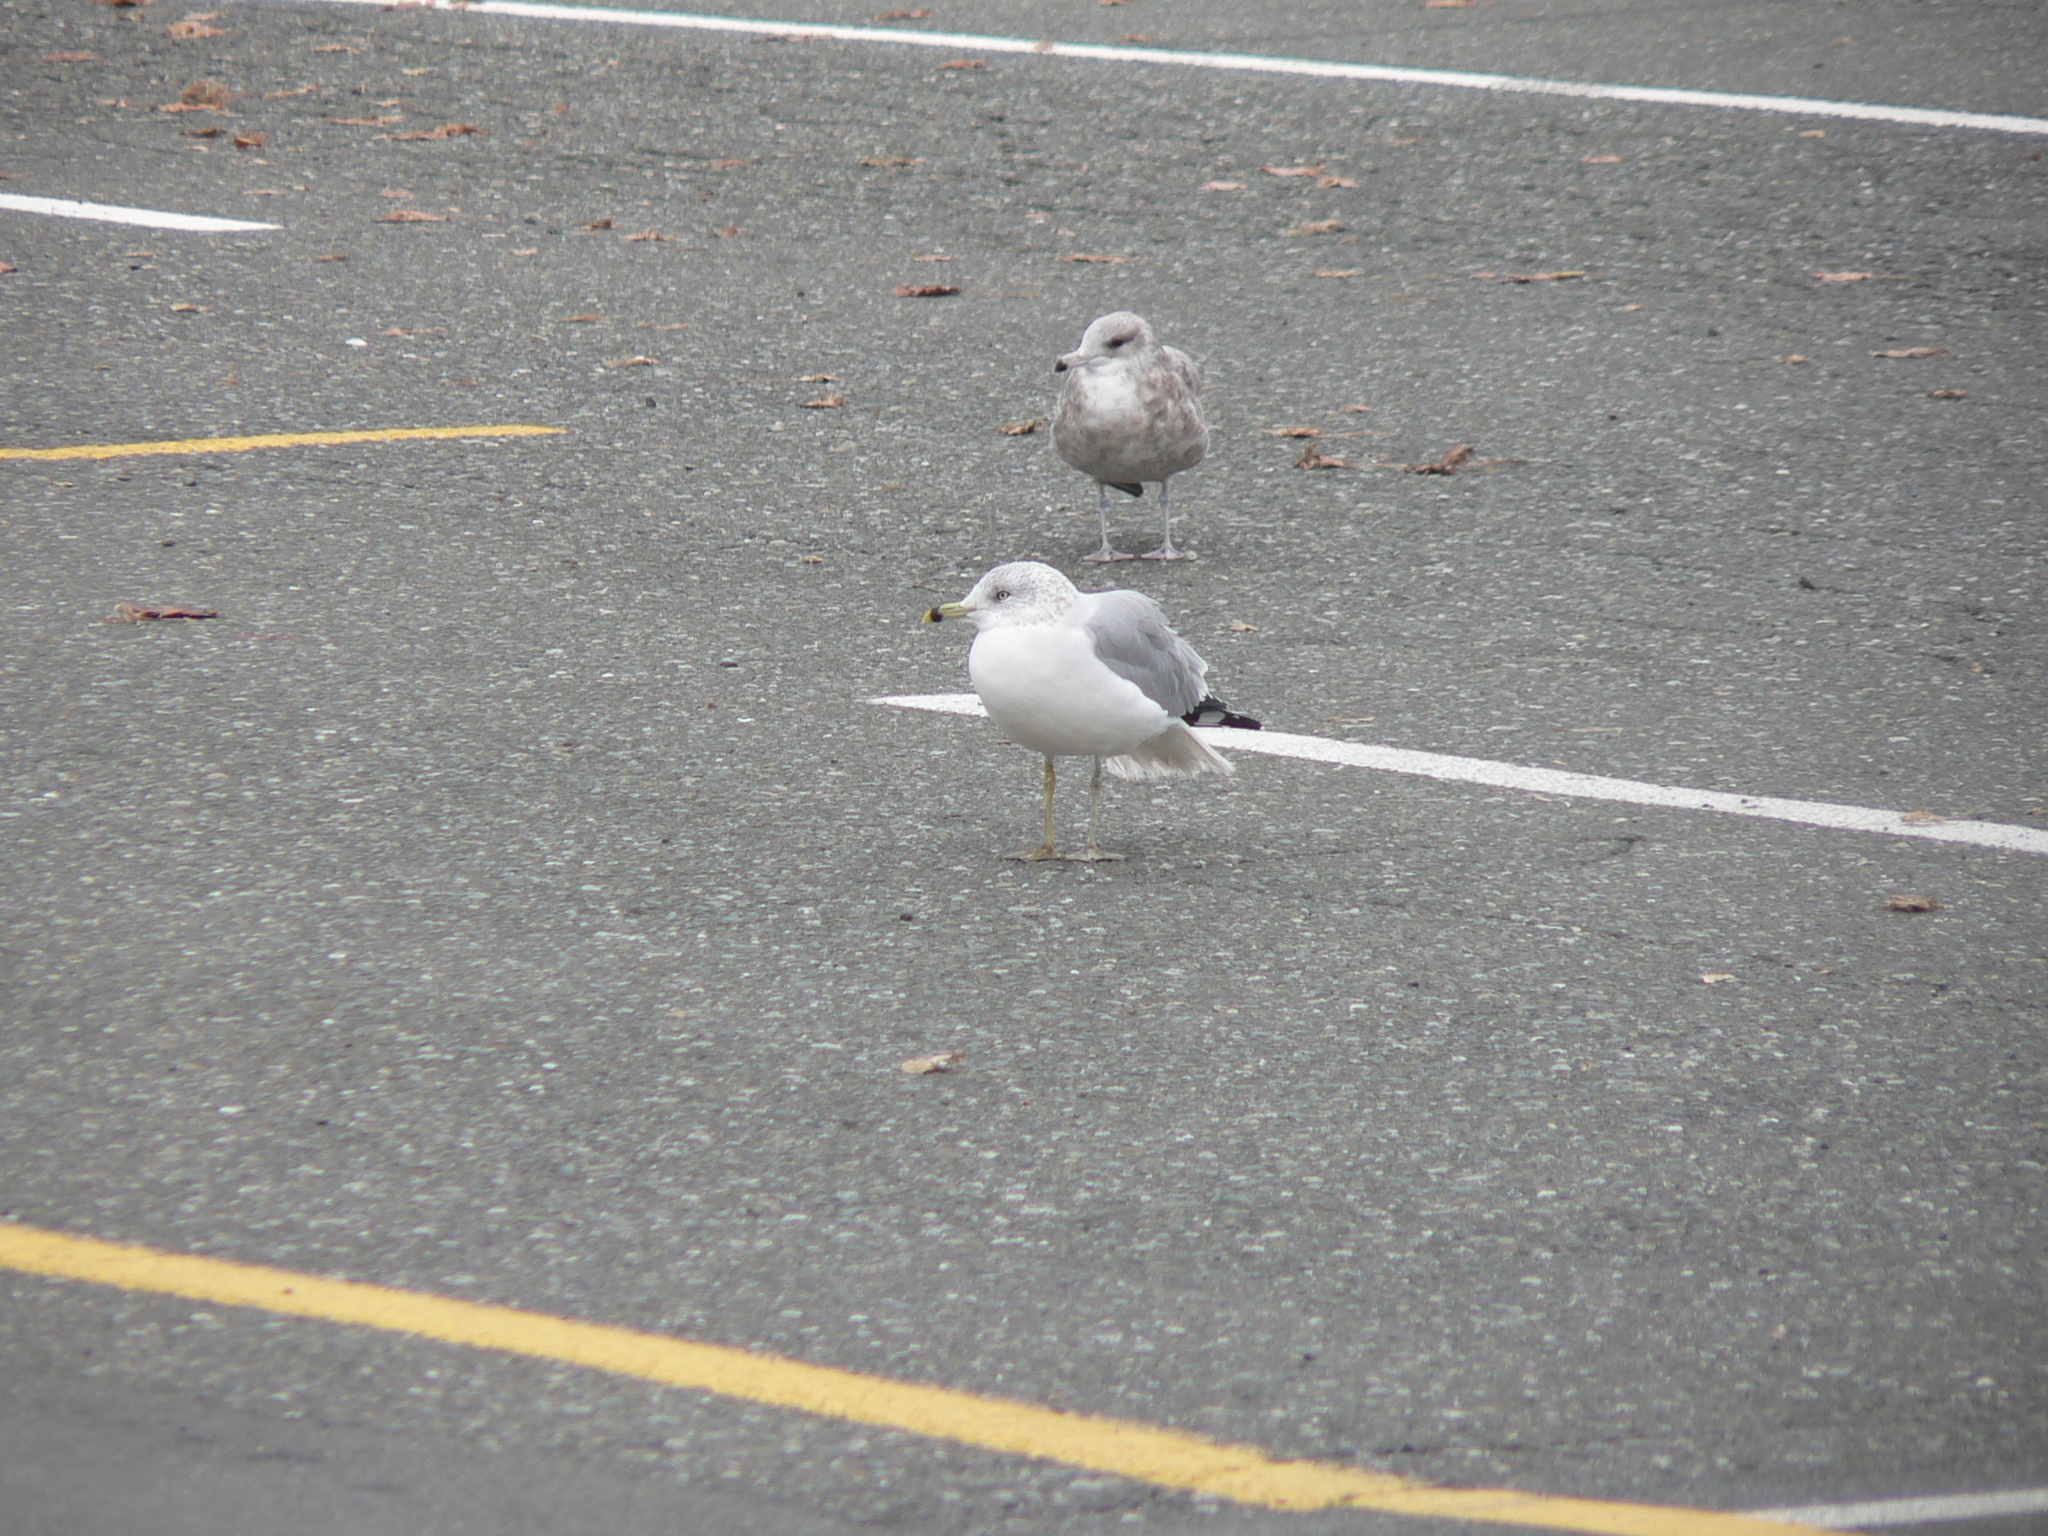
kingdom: Animalia
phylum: Chordata
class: Aves
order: Charadriiformes
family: Laridae
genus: Larus
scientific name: Larus delawarensis
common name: Ring-billed gull
